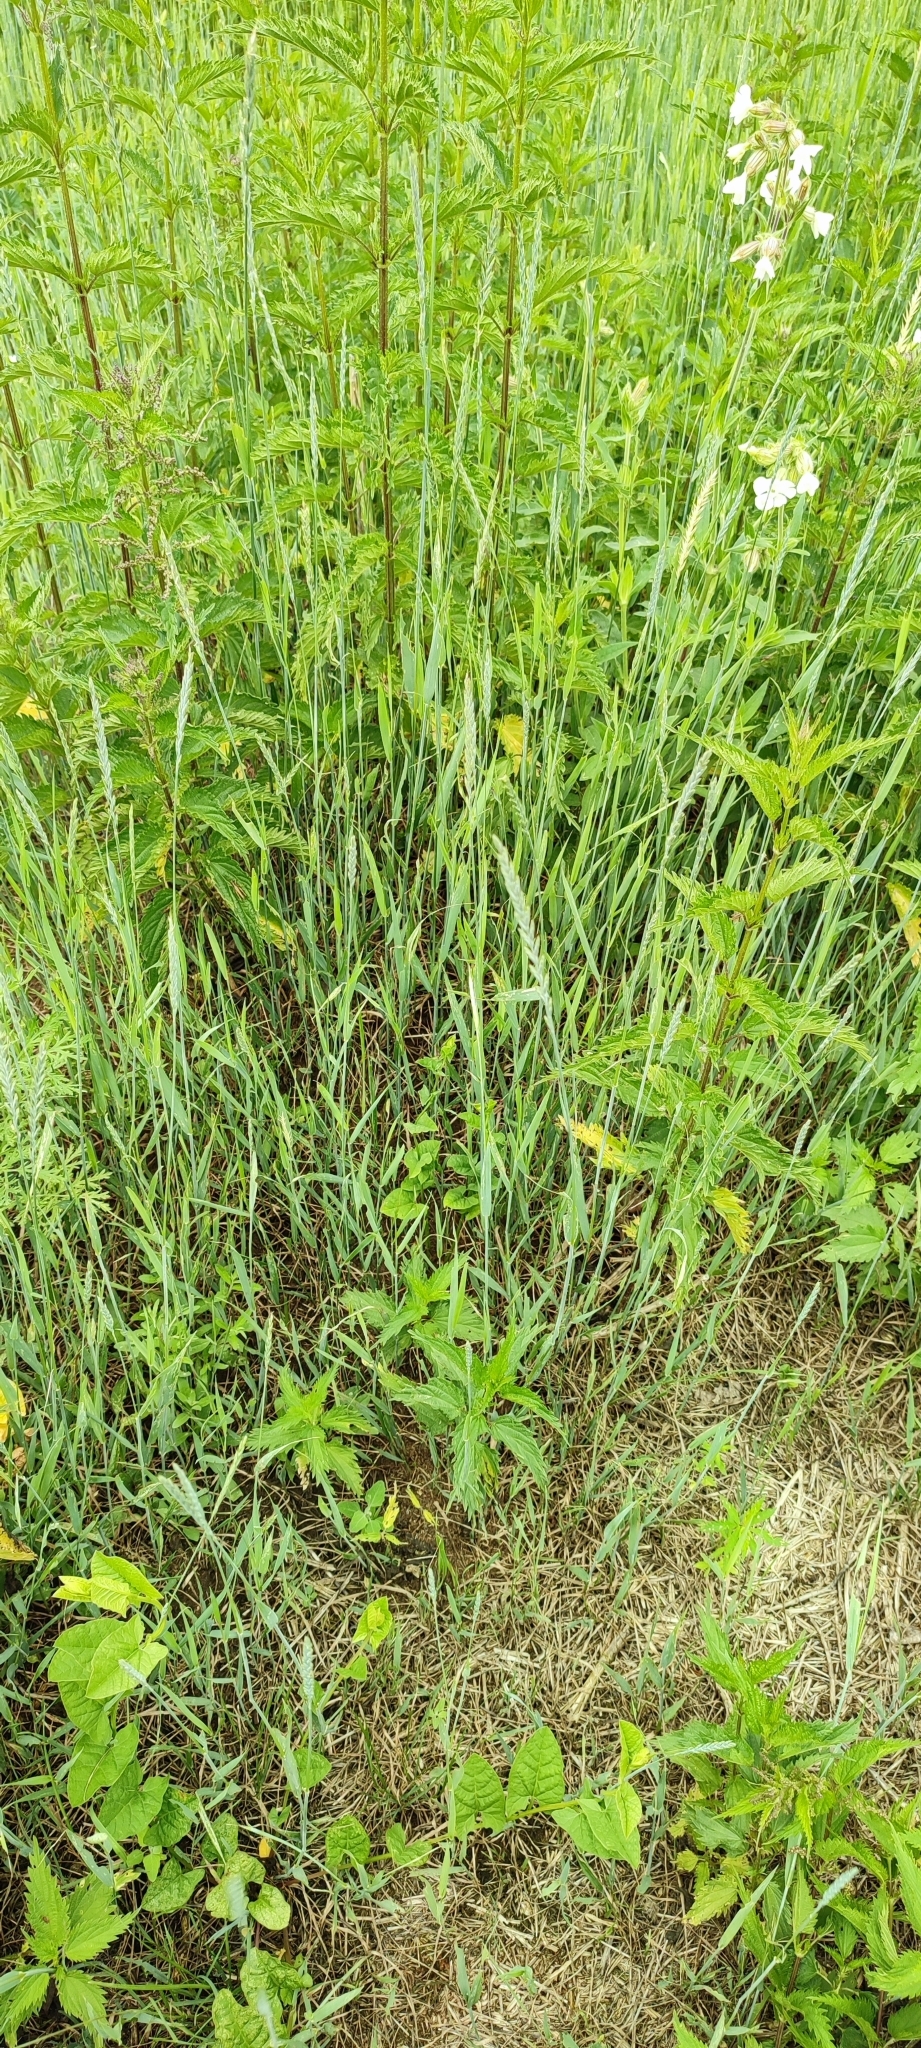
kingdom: Plantae
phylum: Tracheophyta
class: Liliopsida
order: Poales
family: Poaceae
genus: Elymus
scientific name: Elymus repens
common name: Quackgrass
